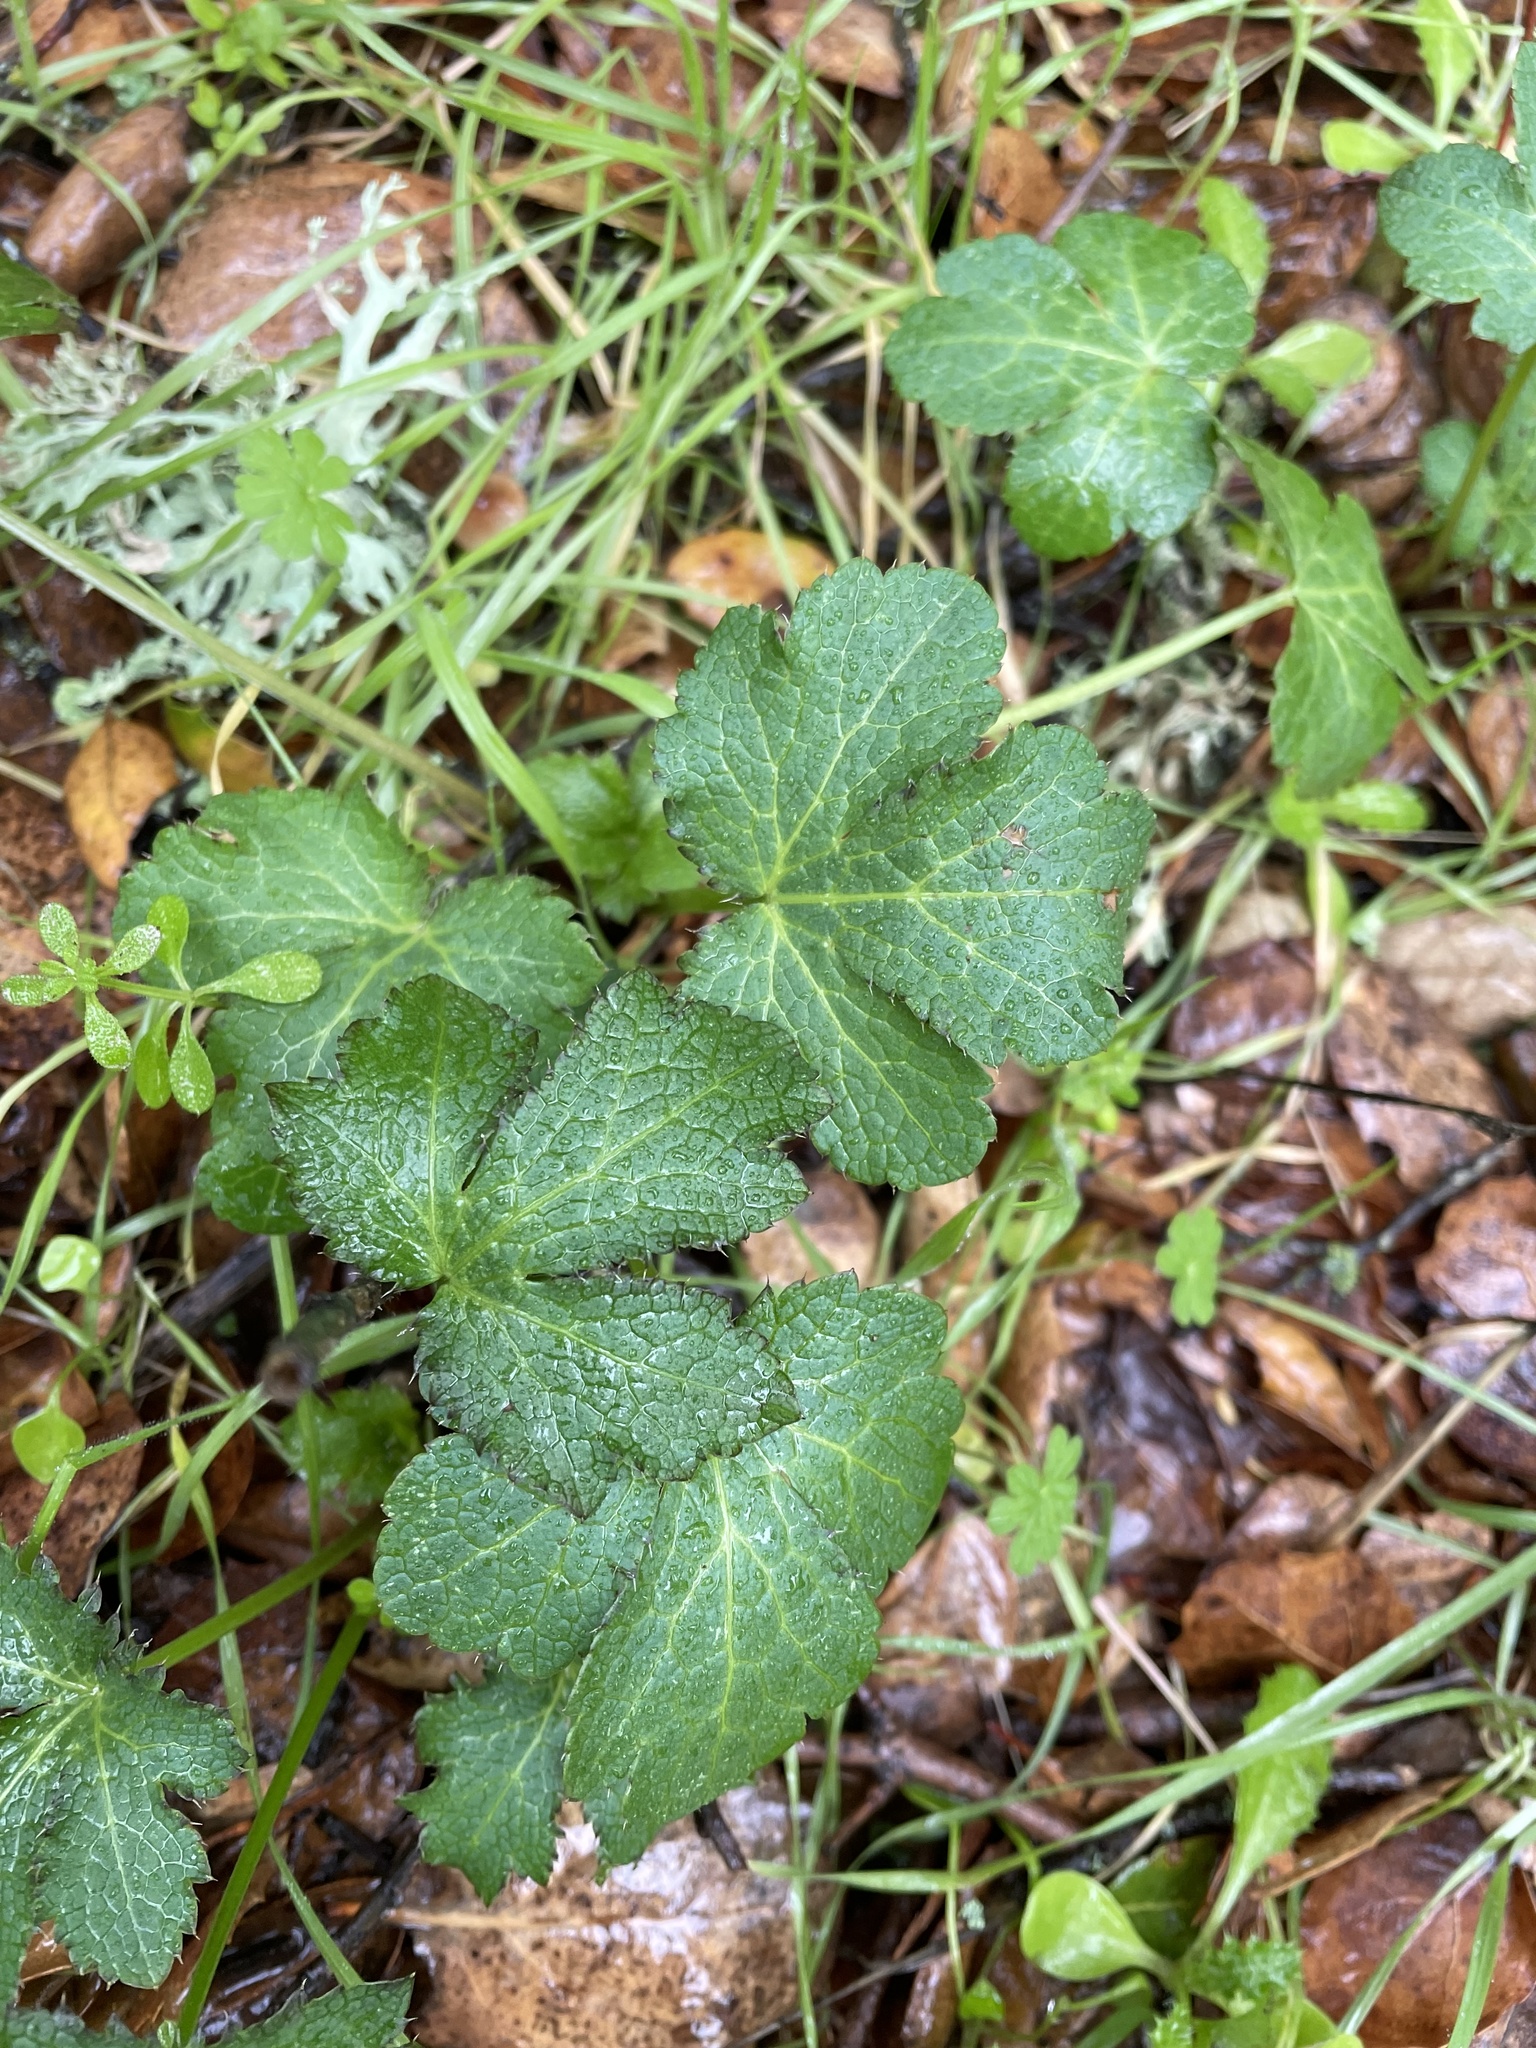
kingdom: Plantae
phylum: Tracheophyta
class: Magnoliopsida
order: Apiales
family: Apiaceae
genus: Sanicula
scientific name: Sanicula crassicaulis
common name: Western snakeroot
